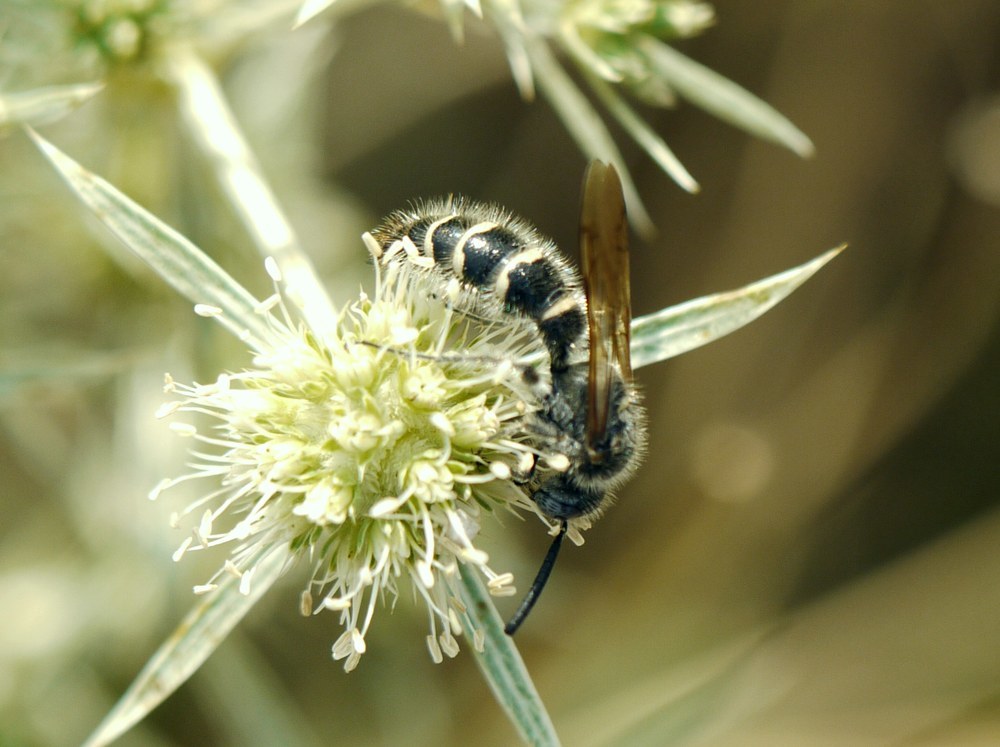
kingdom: Animalia
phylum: Arthropoda
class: Insecta
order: Hymenoptera
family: Scoliidae
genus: Colpa
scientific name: Colpa quinquecincta
